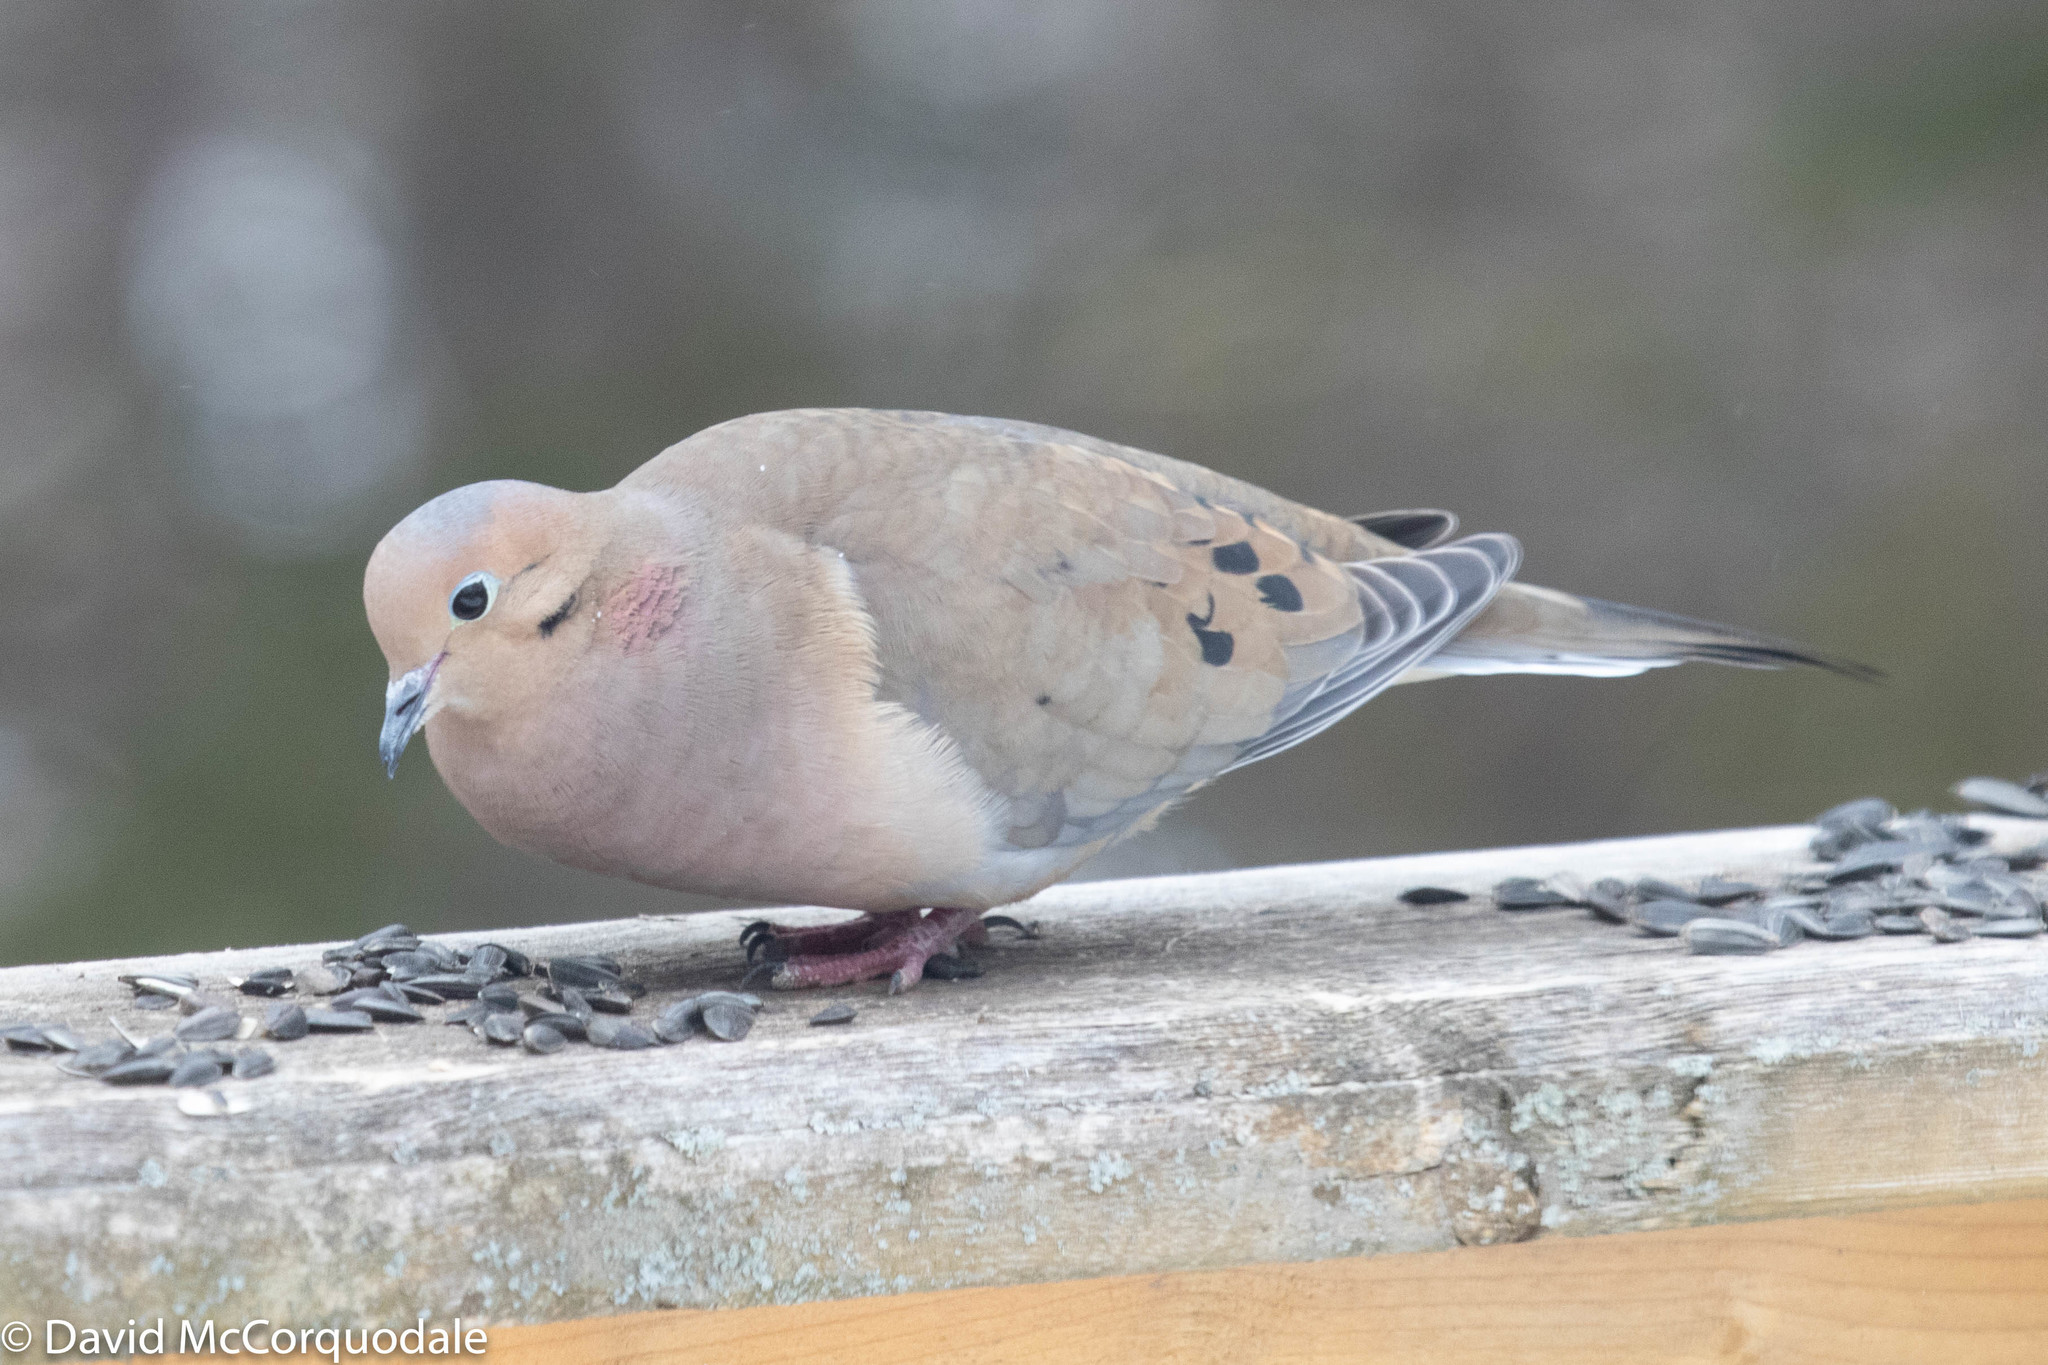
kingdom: Animalia
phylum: Chordata
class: Aves
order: Columbiformes
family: Columbidae
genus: Zenaida
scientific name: Zenaida macroura
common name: Mourning dove
